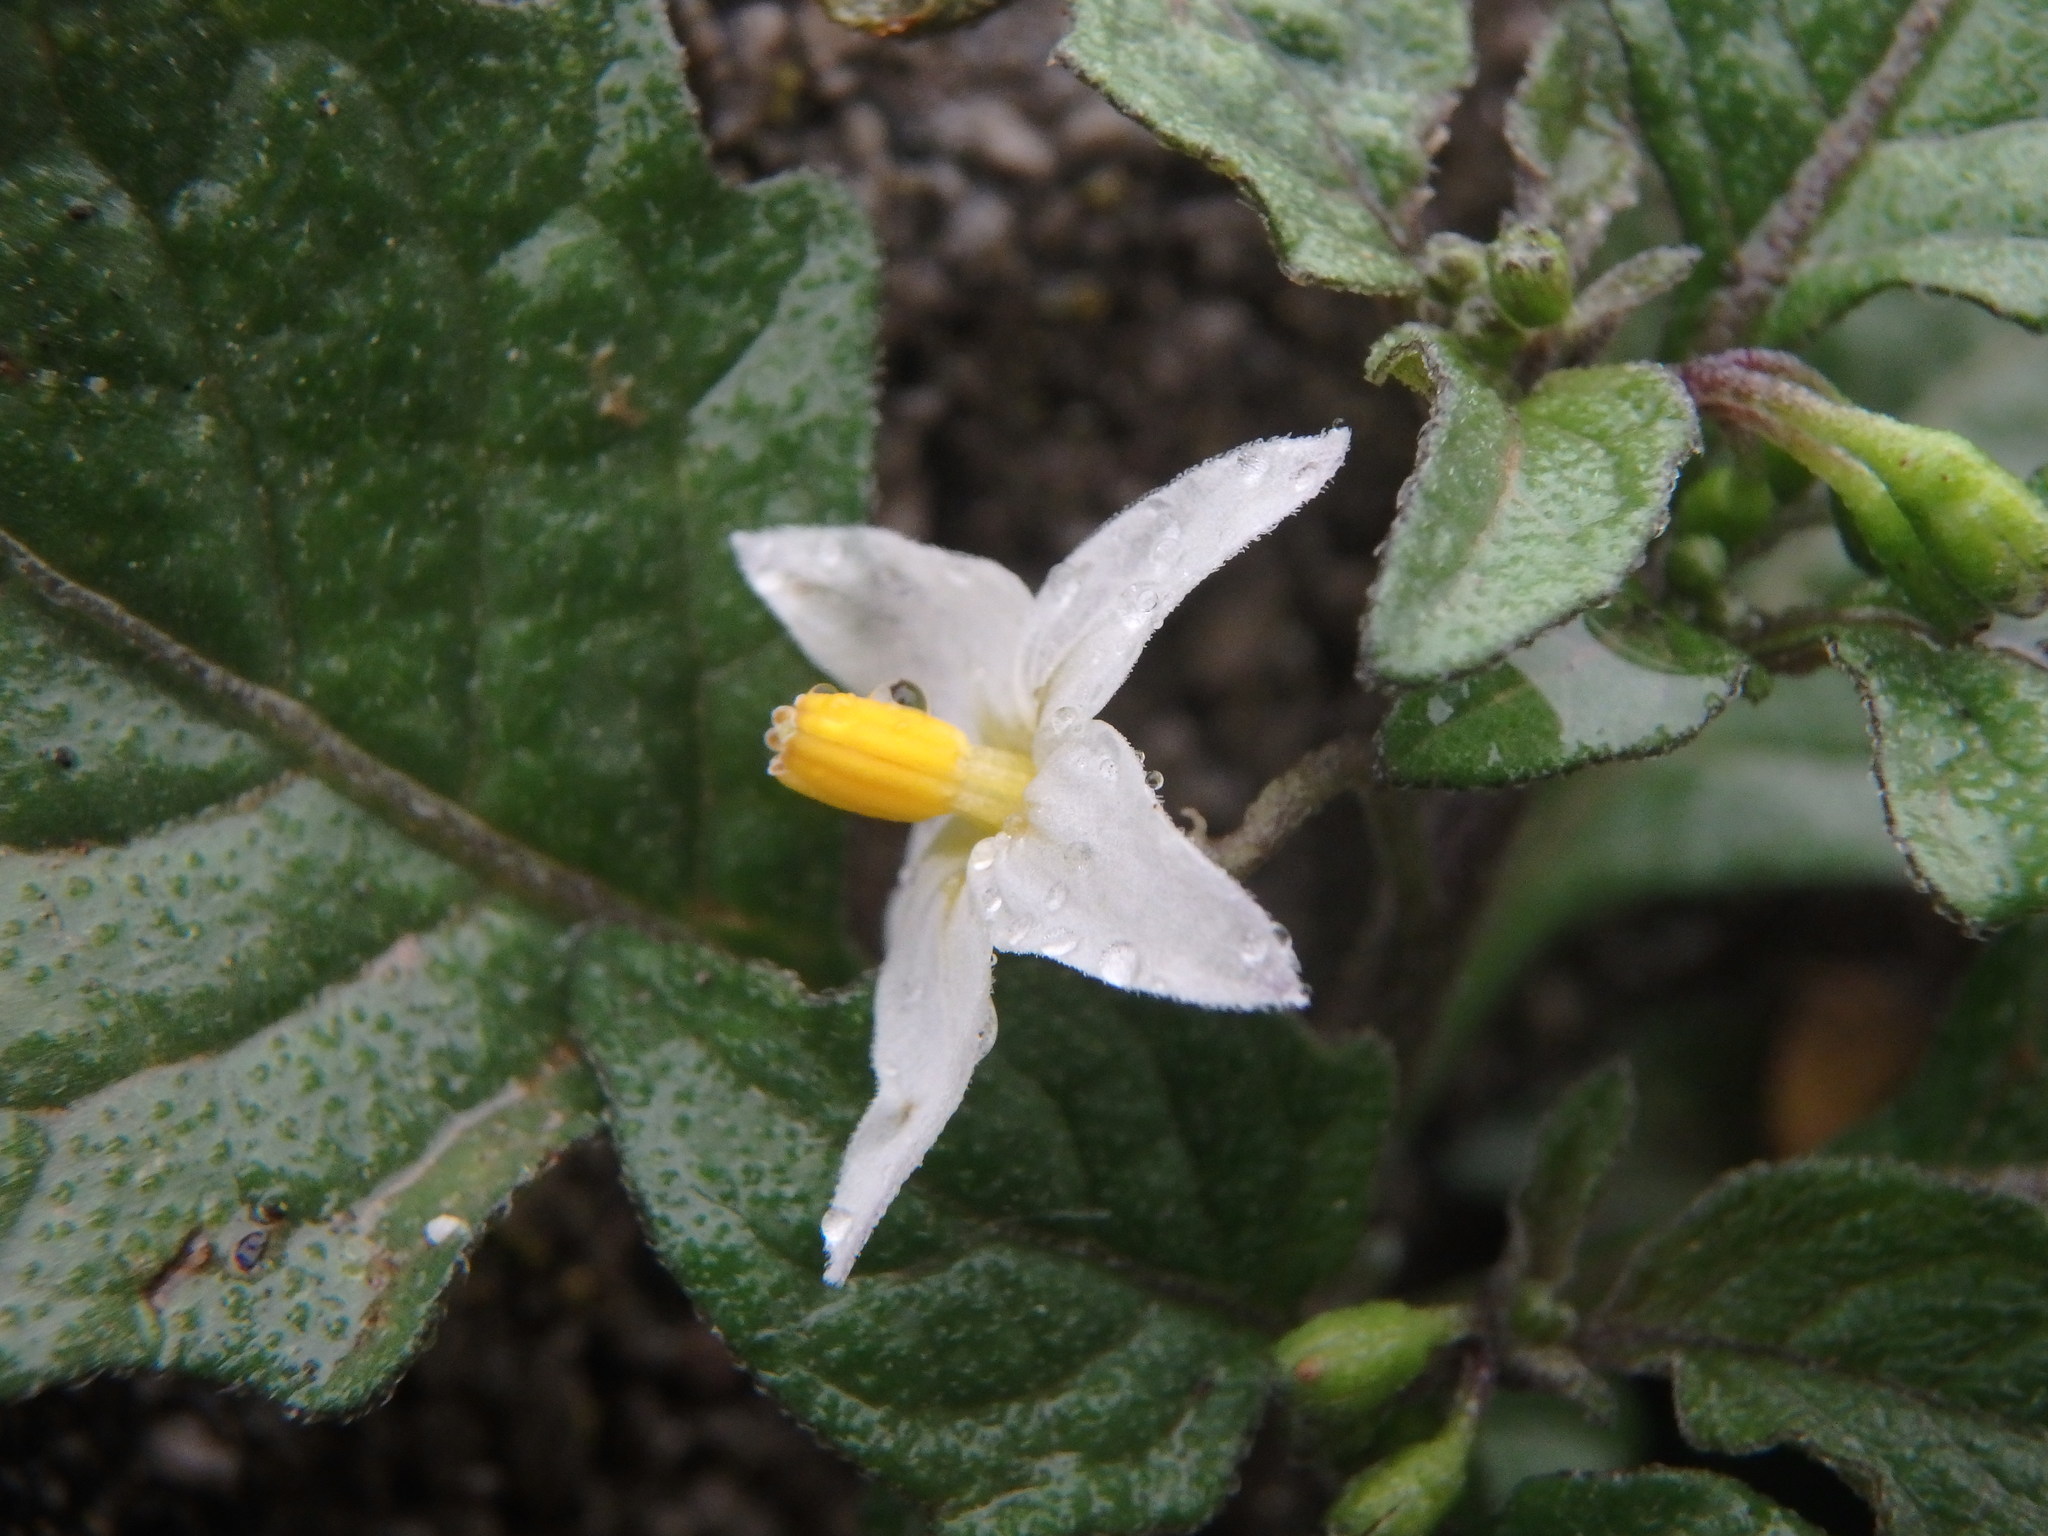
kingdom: Plantae
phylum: Tracheophyta
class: Magnoliopsida
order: Solanales
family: Solanaceae
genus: Solanum
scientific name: Solanum nigrum
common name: Black nightshade
